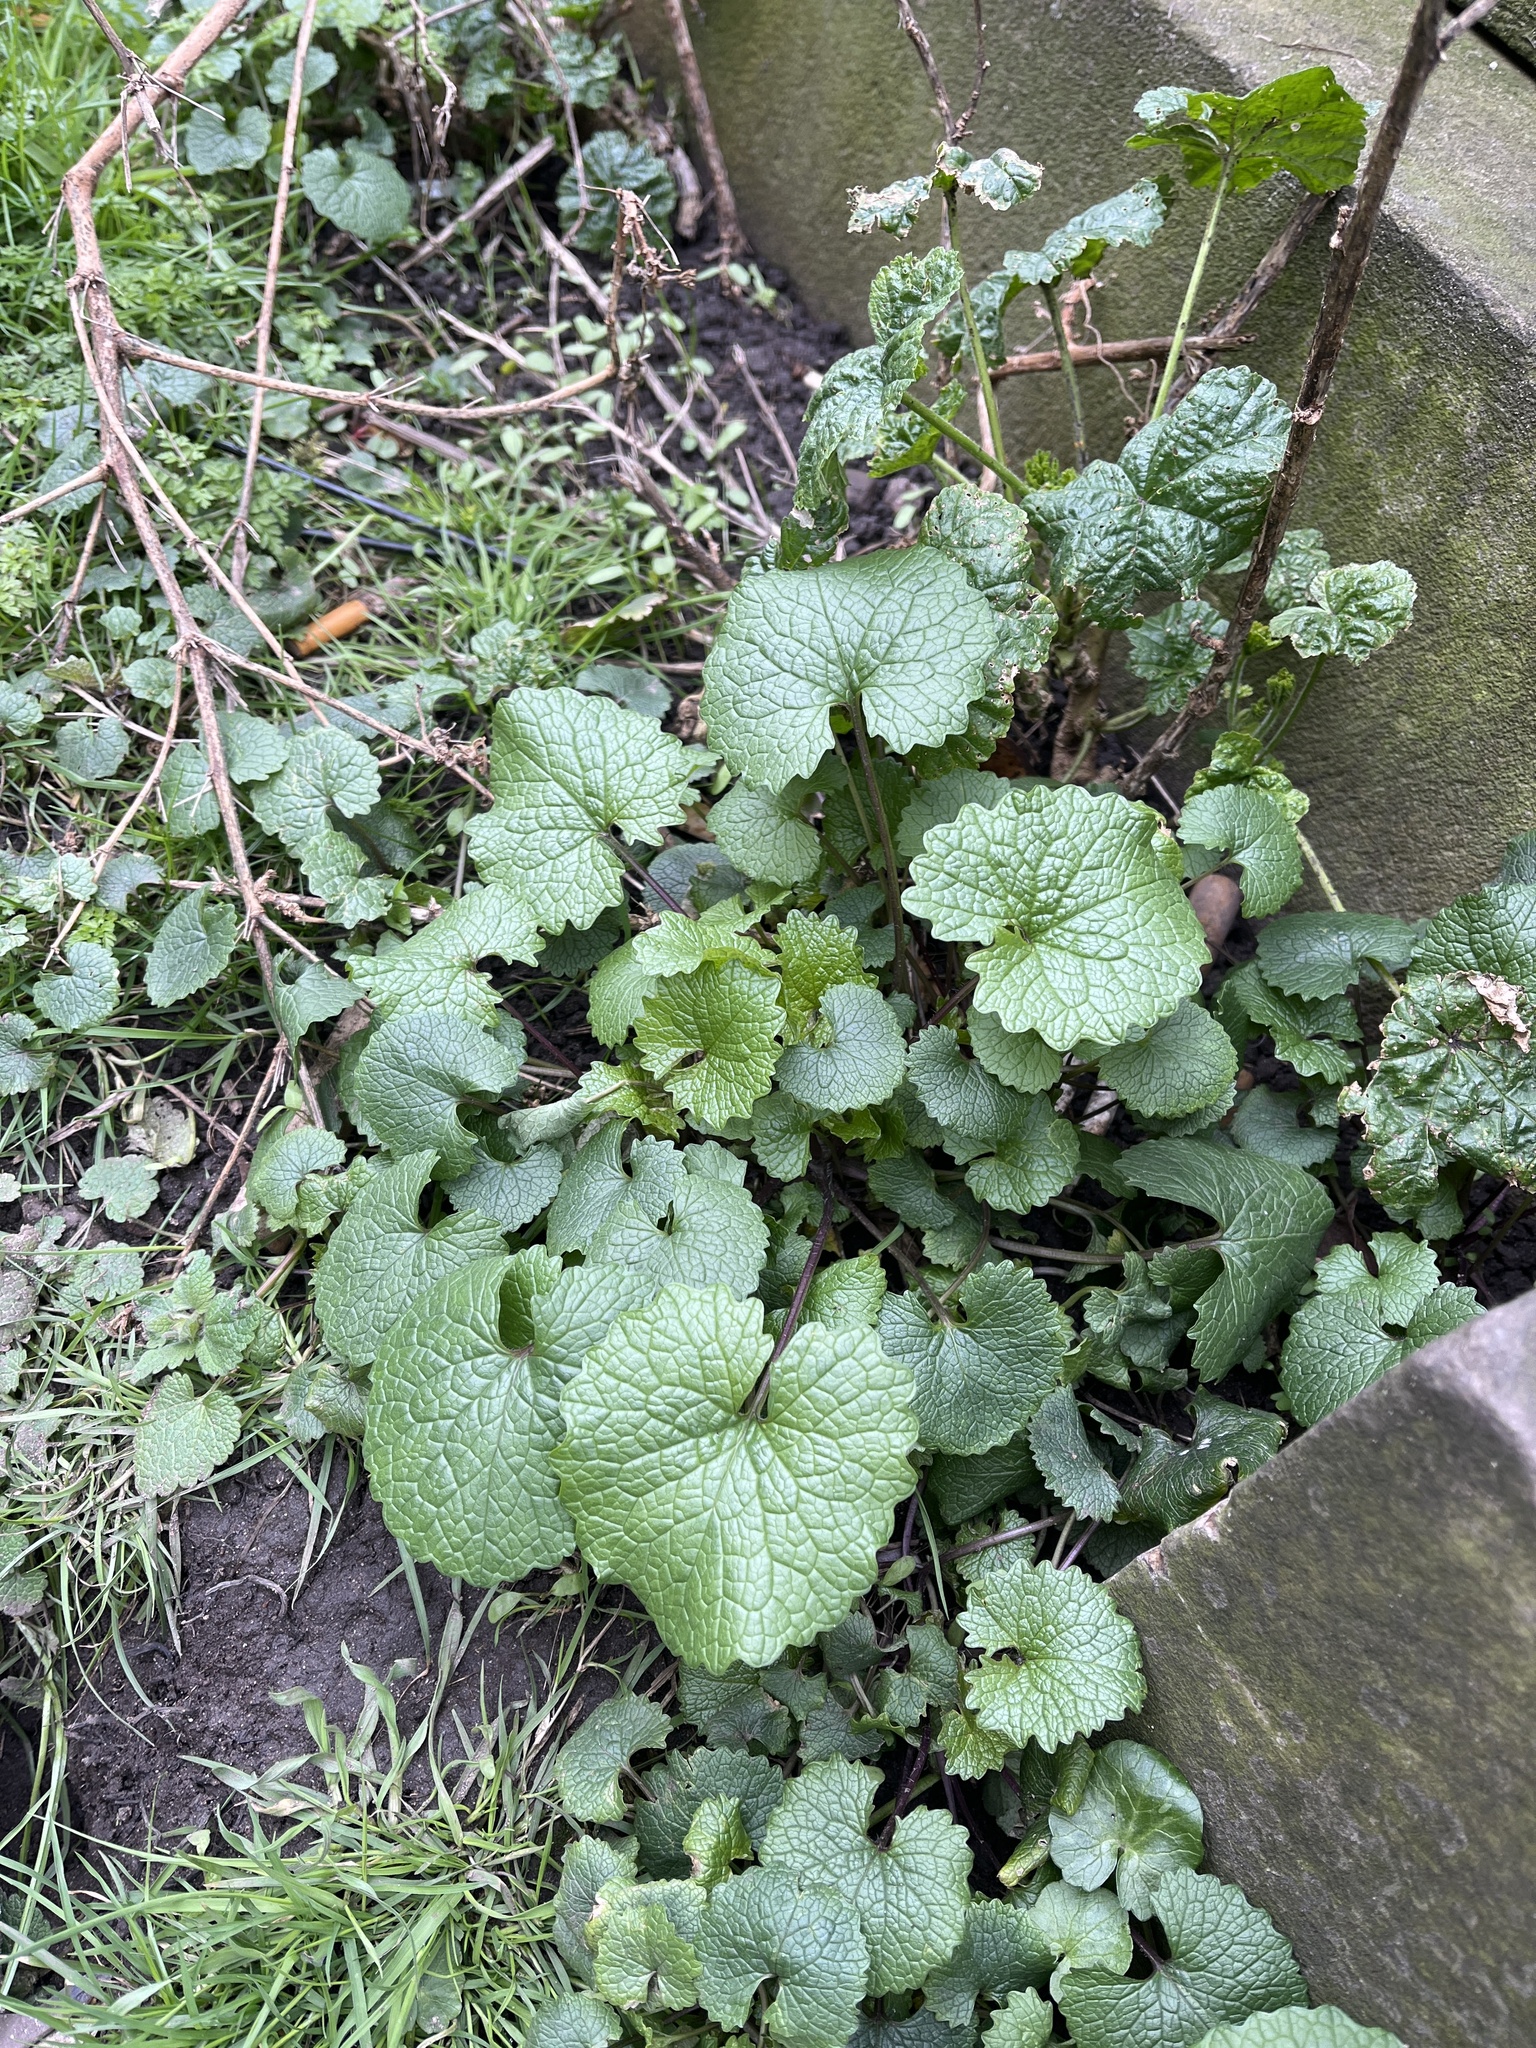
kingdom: Plantae
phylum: Tracheophyta
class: Magnoliopsida
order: Brassicales
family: Brassicaceae
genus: Alliaria
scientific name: Alliaria petiolata
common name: Garlic mustard
